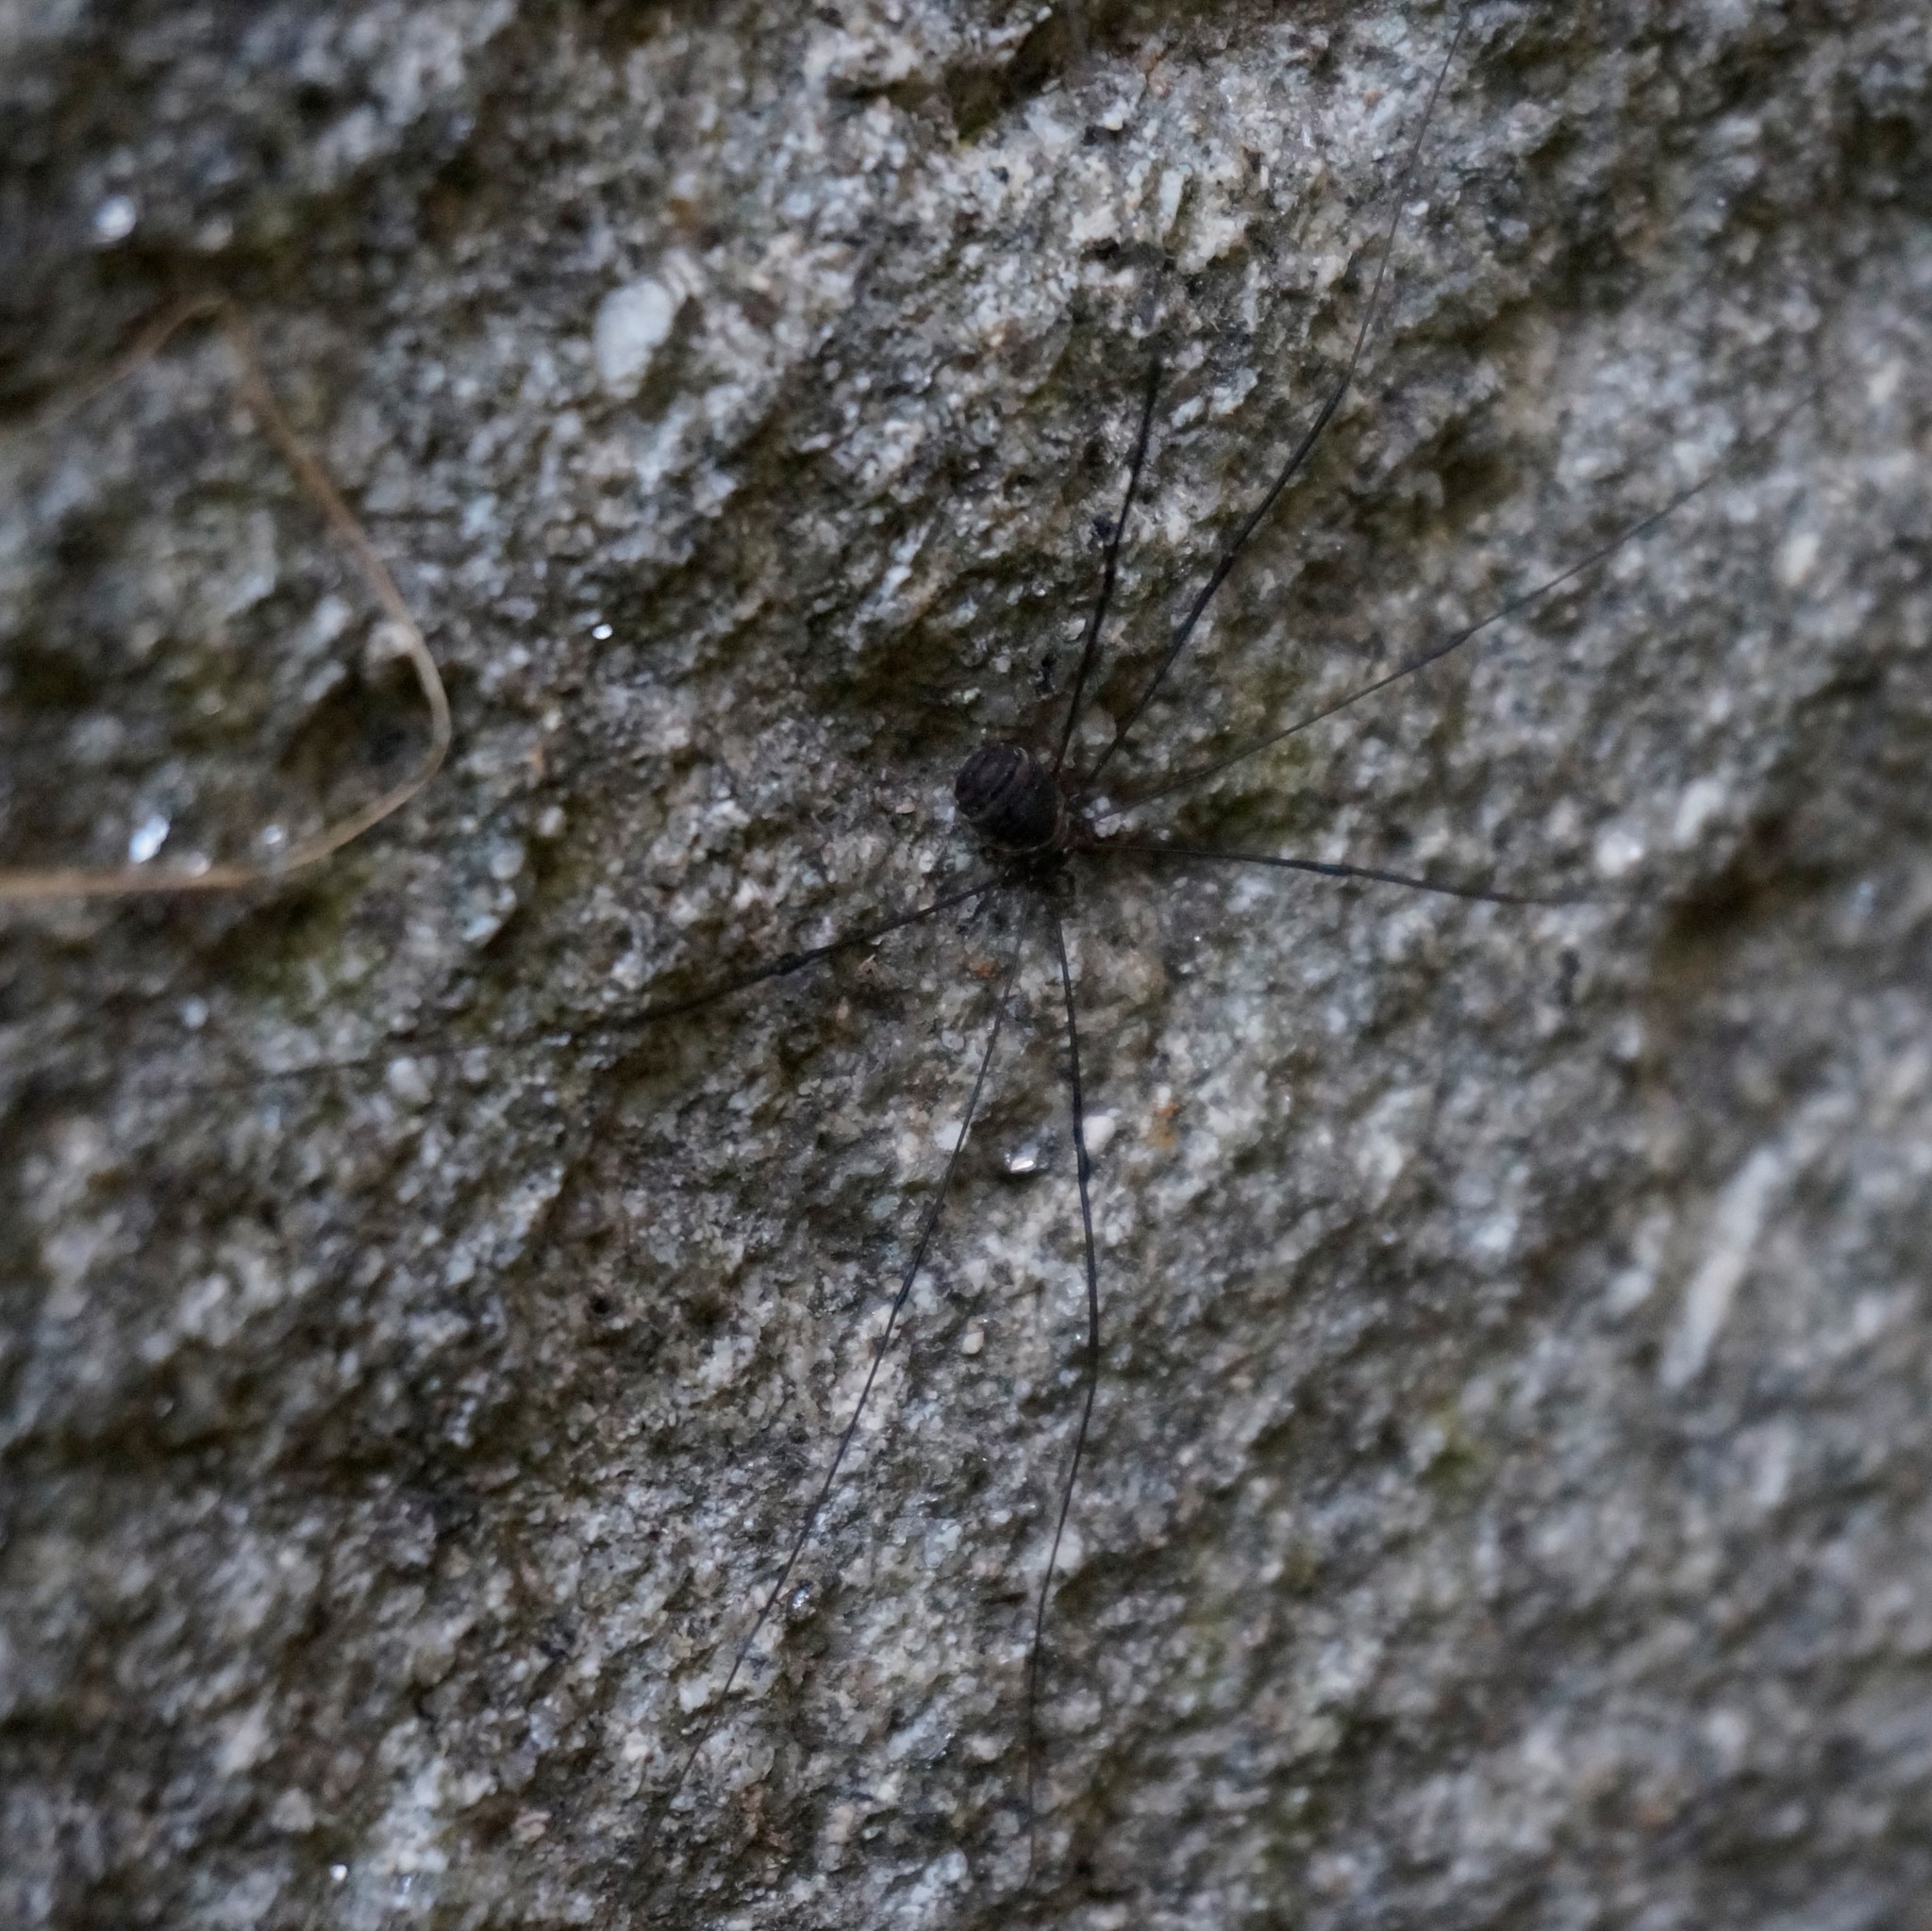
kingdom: Animalia
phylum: Arthropoda
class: Arachnida
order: Opiliones
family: Sclerosomatidae
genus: Leiobunum
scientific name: Leiobunum
